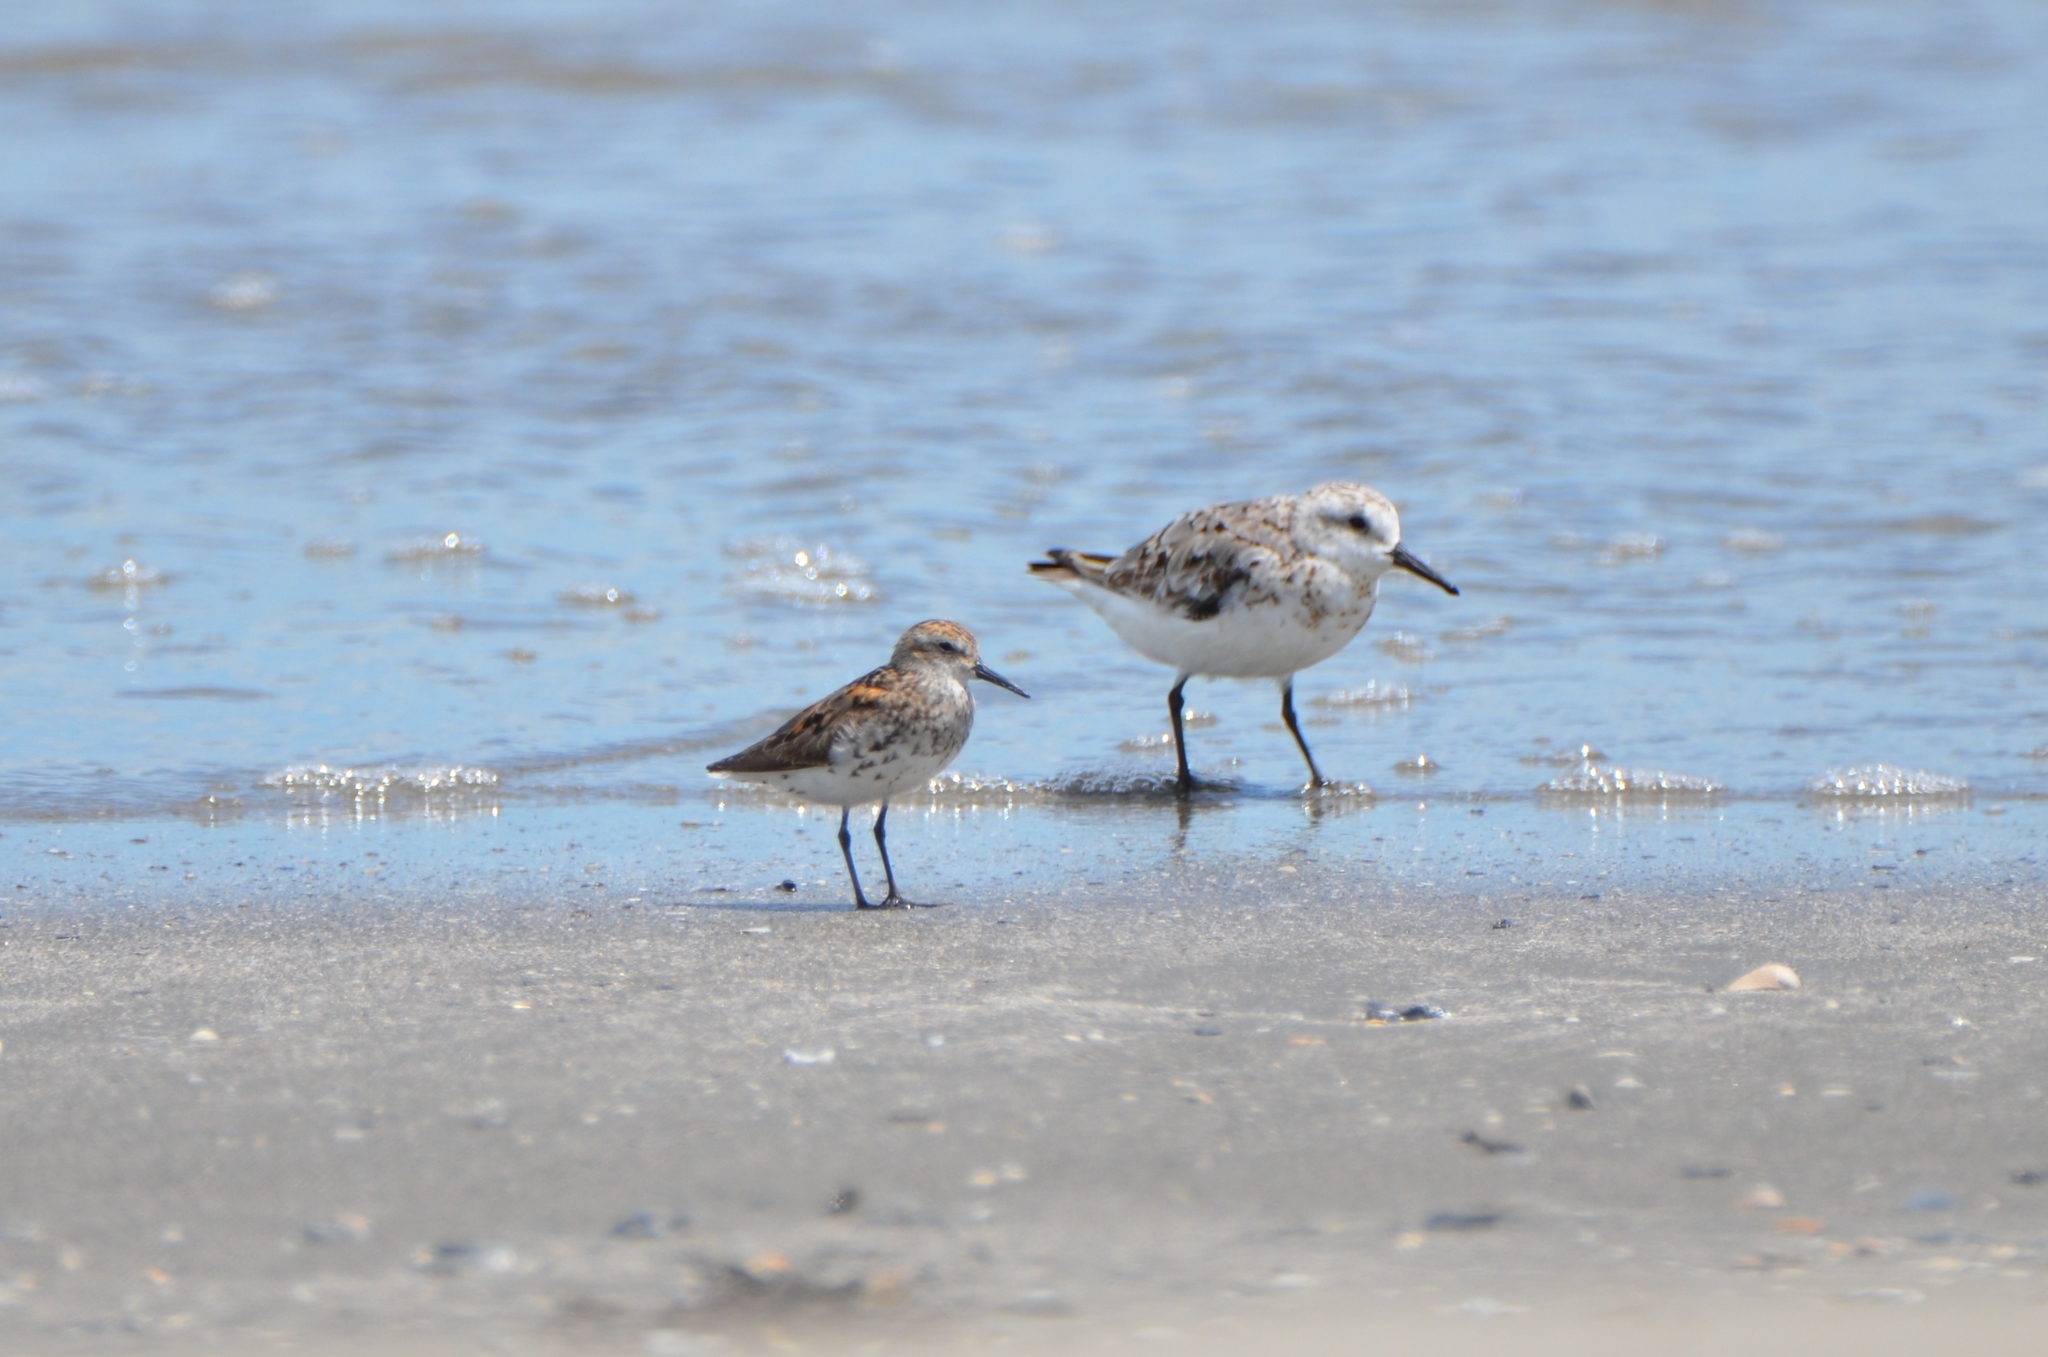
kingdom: Animalia
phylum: Chordata
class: Aves
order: Charadriiformes
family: Scolopacidae
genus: Calidris
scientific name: Calidris mauri
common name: Western sandpiper
